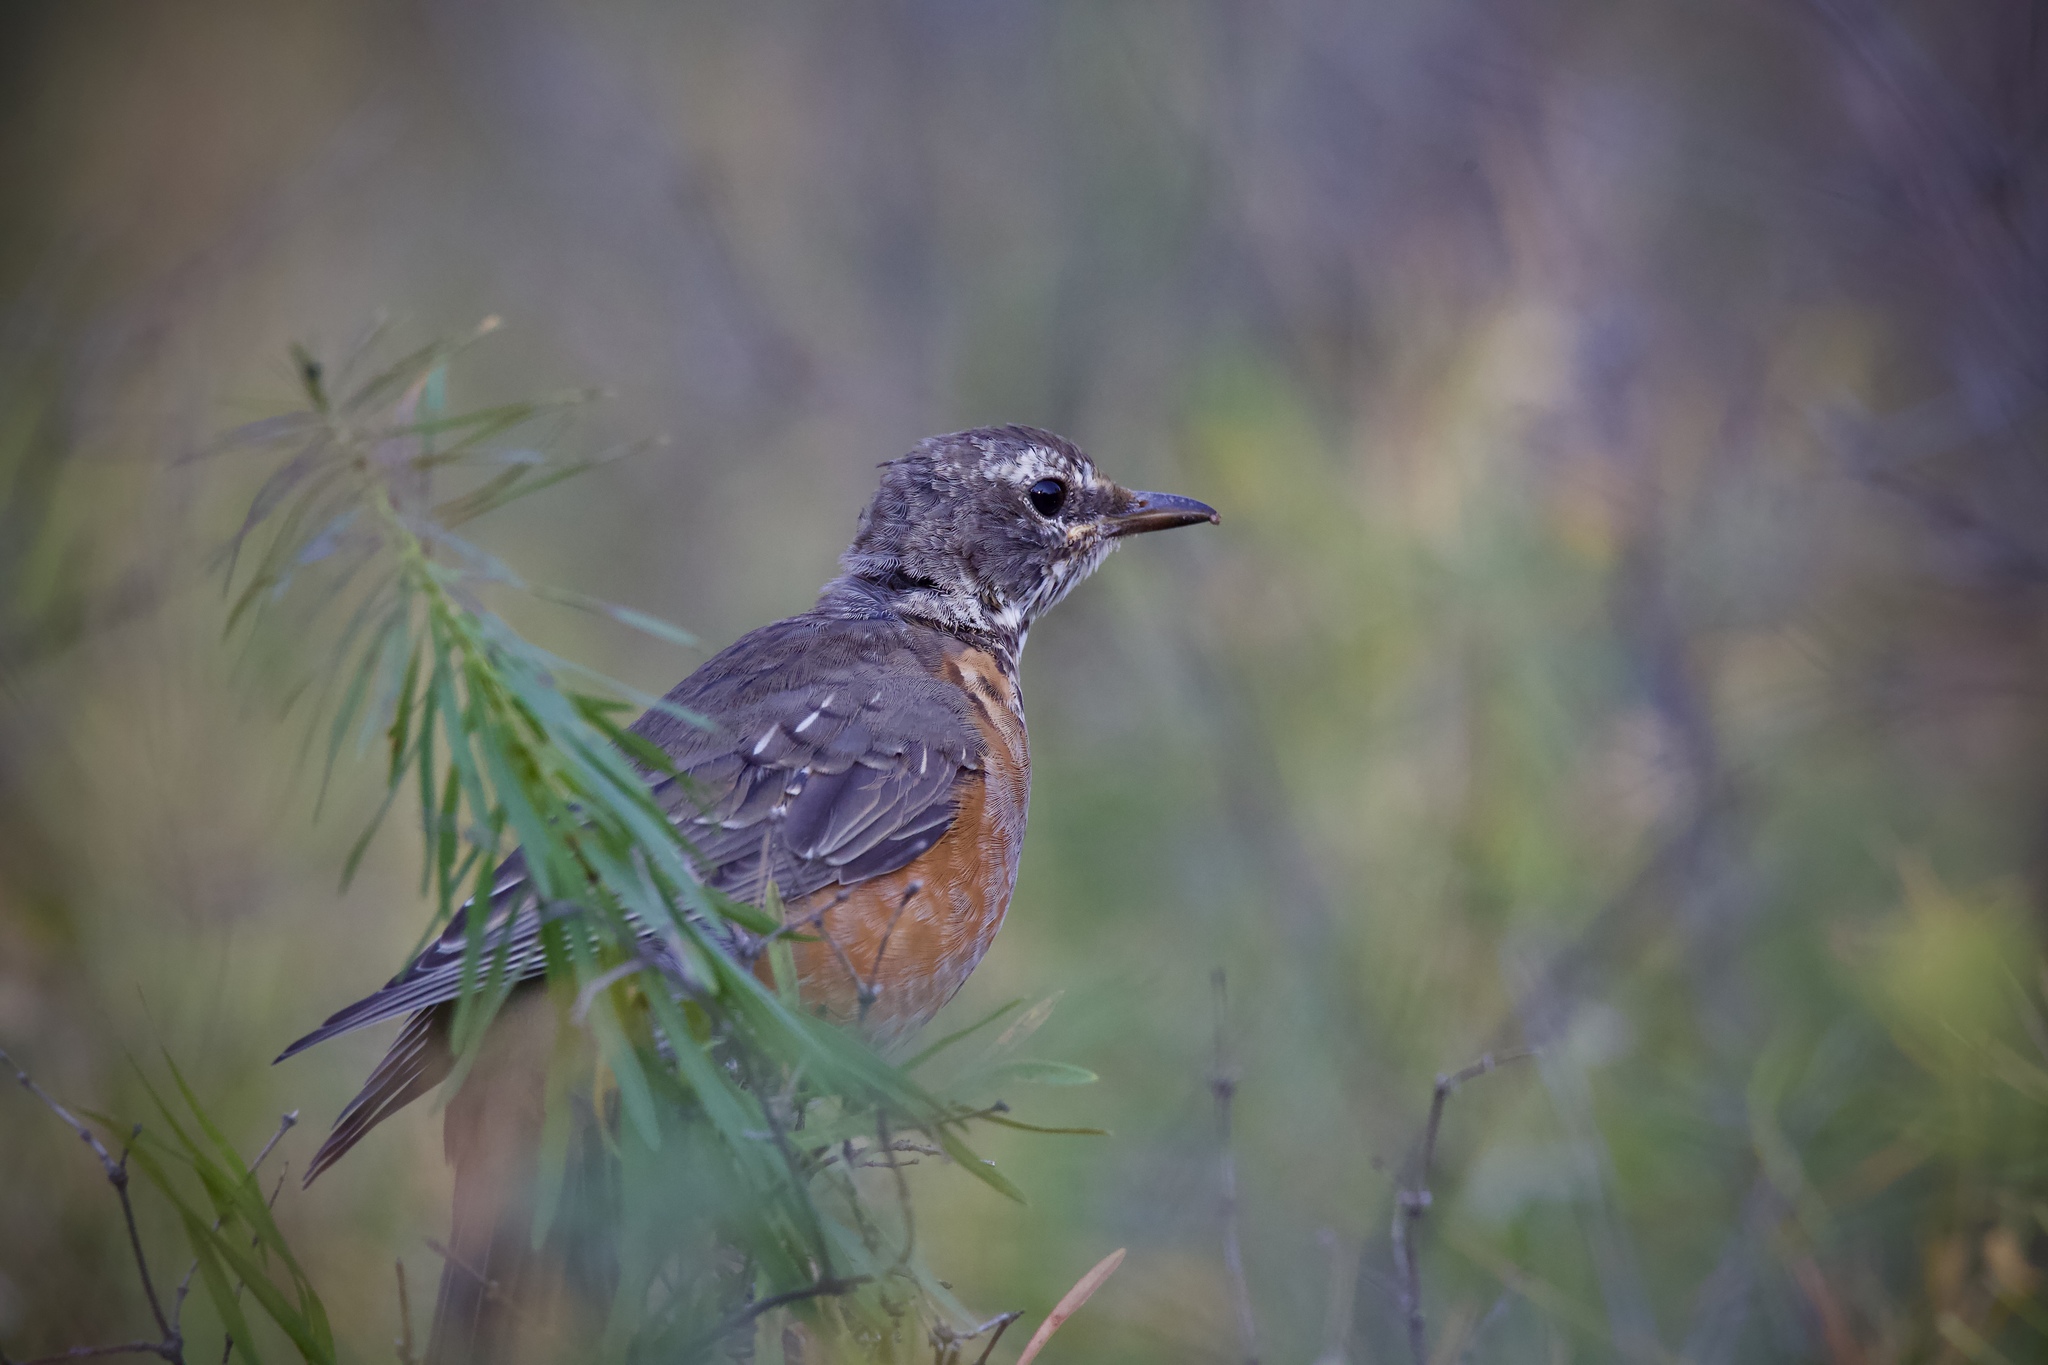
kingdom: Animalia
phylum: Chordata
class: Aves
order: Passeriformes
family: Turdidae
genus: Turdus
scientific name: Turdus migratorius
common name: American robin
